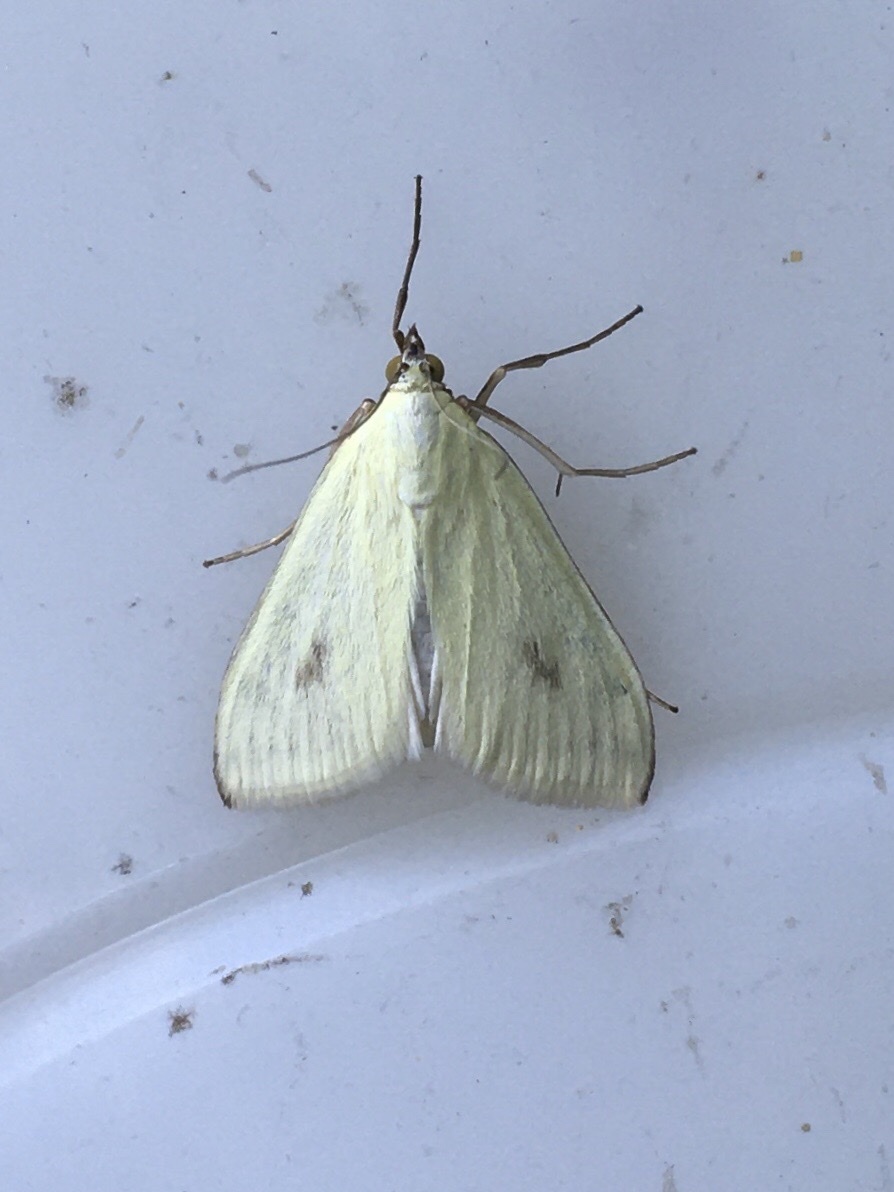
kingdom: Animalia
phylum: Arthropoda
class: Insecta
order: Lepidoptera
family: Crambidae
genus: Sitochroa
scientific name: Sitochroa palealis
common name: Greenish-yellow sitochroa moth
